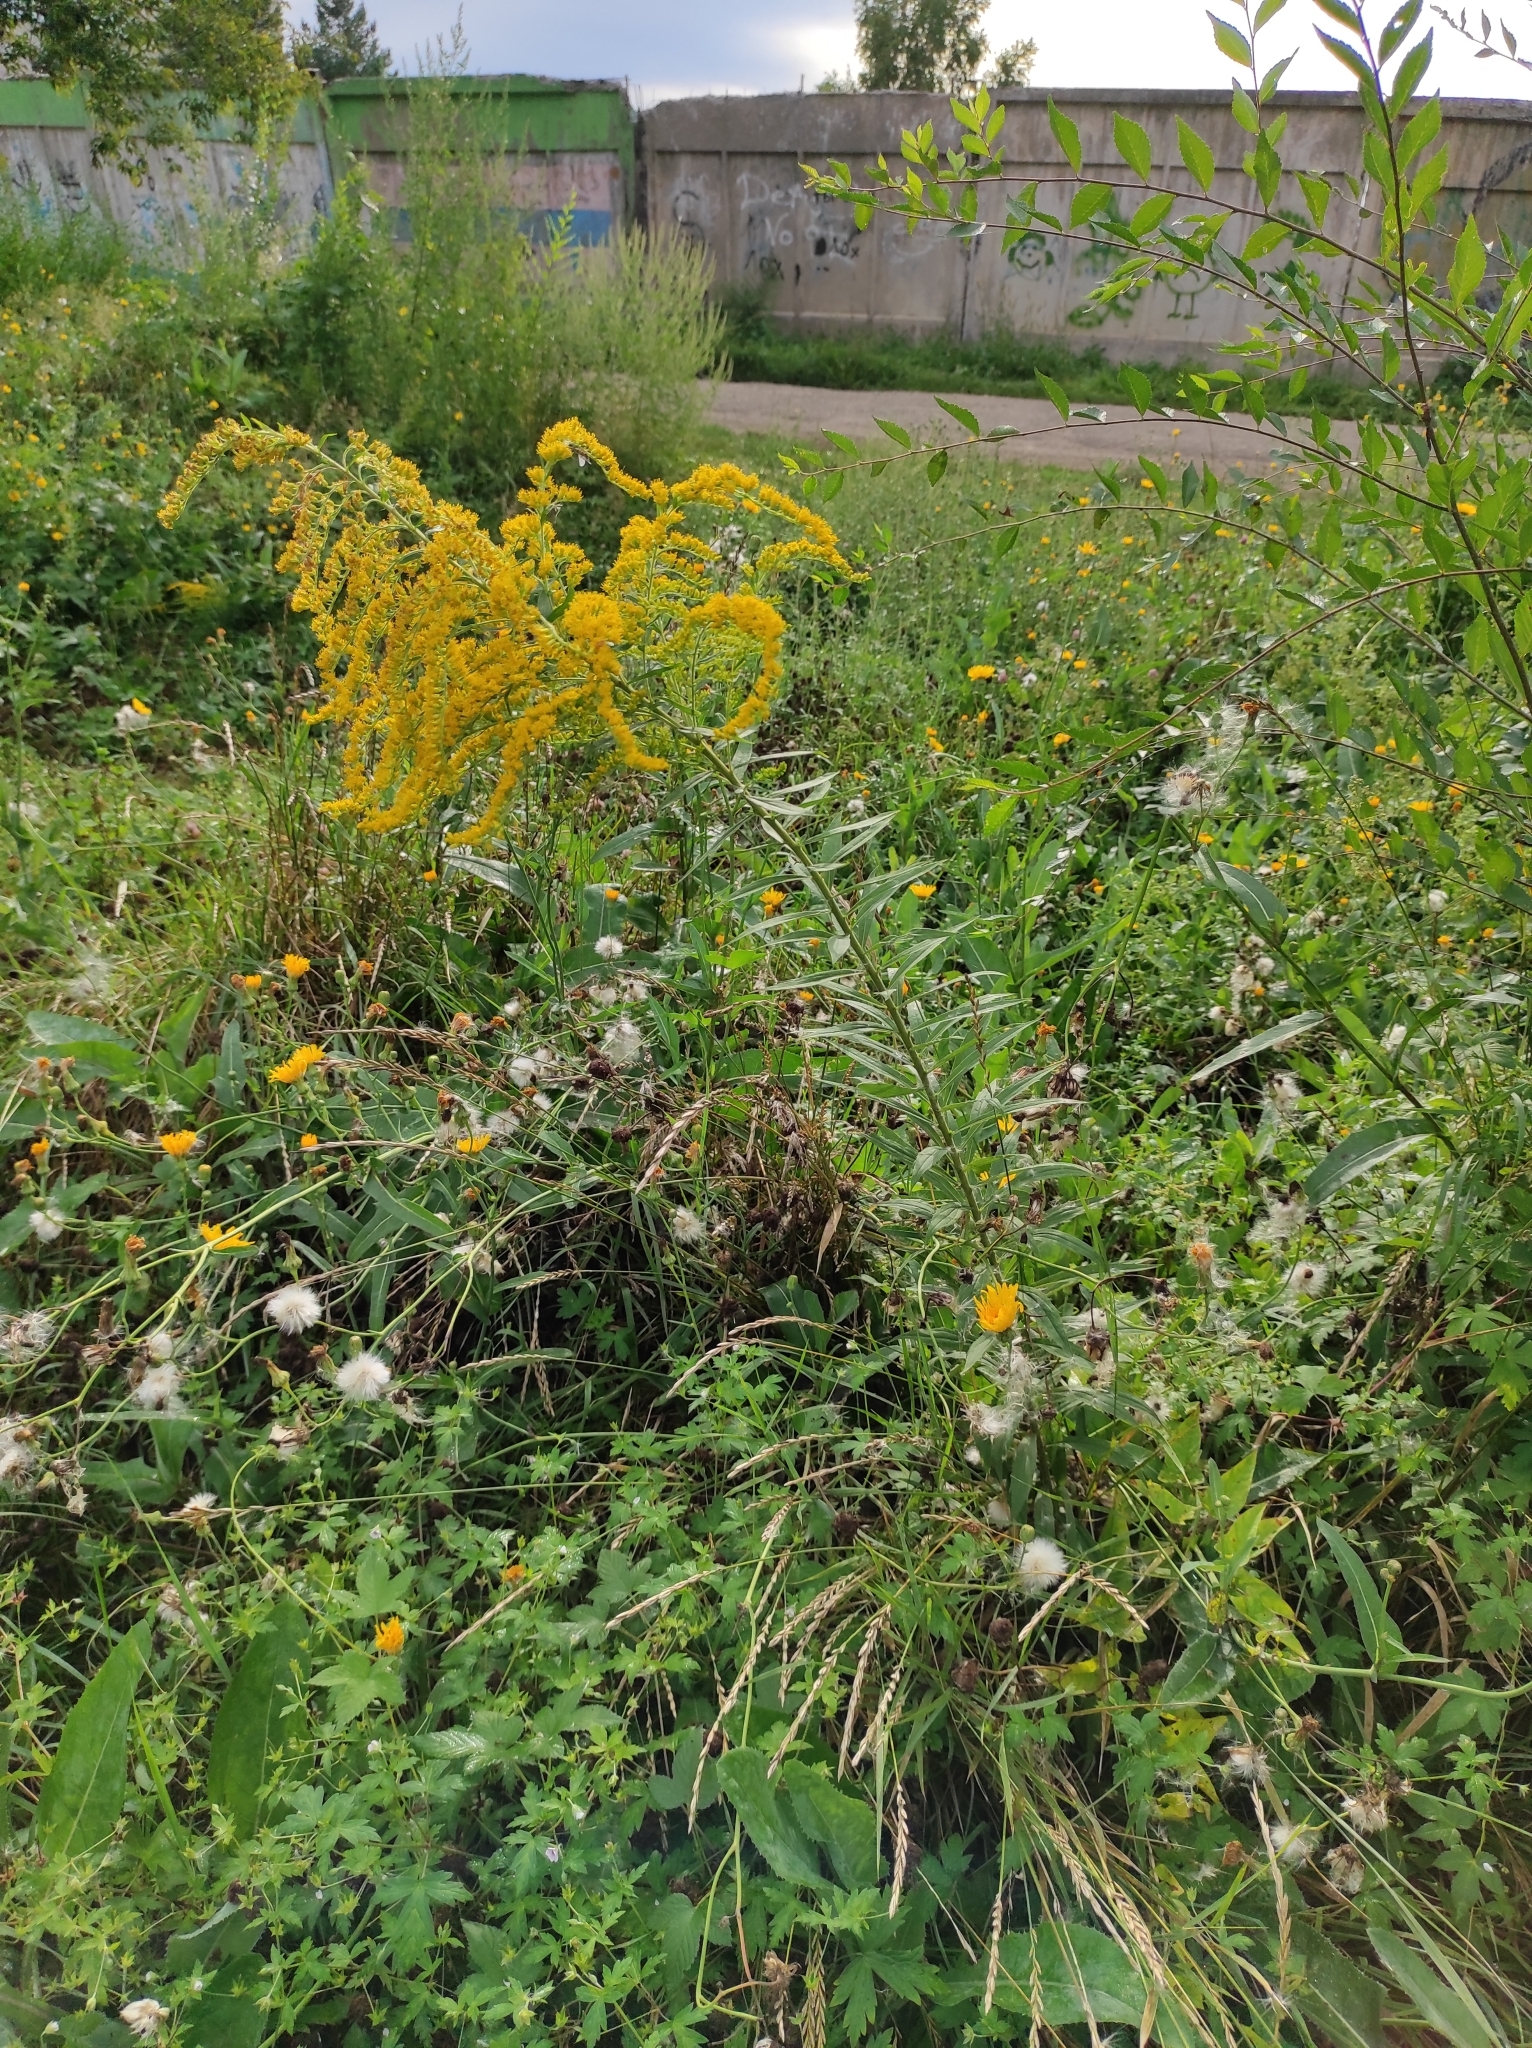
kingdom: Plantae
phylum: Tracheophyta
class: Magnoliopsida
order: Asterales
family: Asteraceae
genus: Solidago
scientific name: Solidago canadensis
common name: Canada goldenrod
